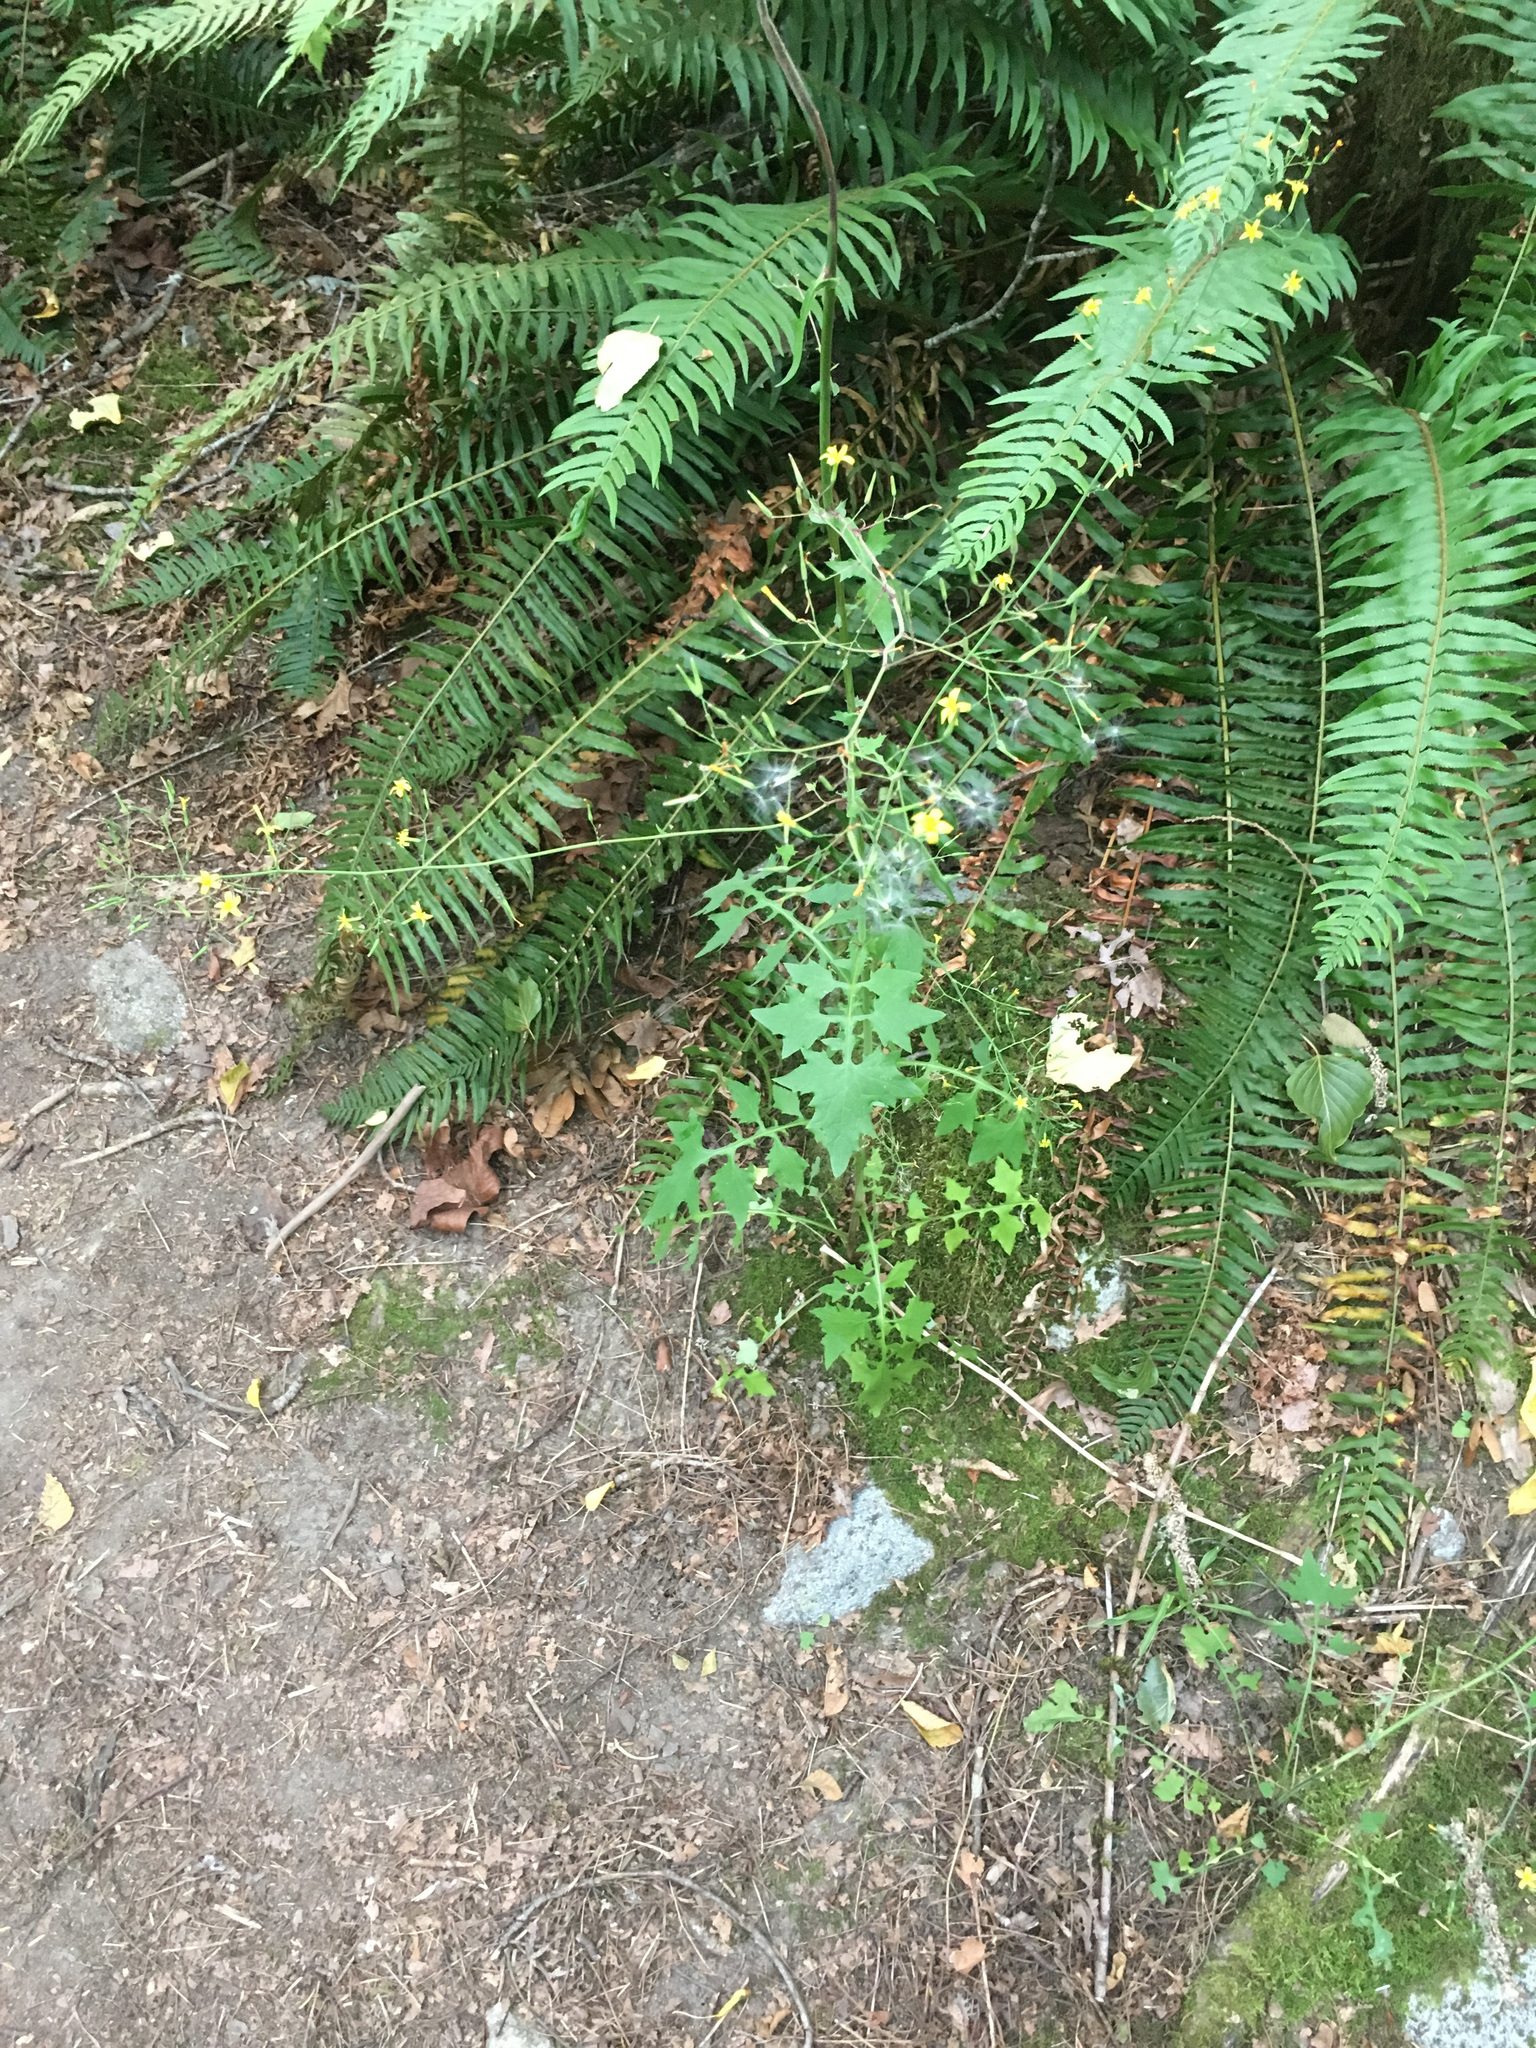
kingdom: Plantae
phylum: Tracheophyta
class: Magnoliopsida
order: Asterales
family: Asteraceae
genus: Mycelis
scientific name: Mycelis muralis
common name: Wall lettuce
